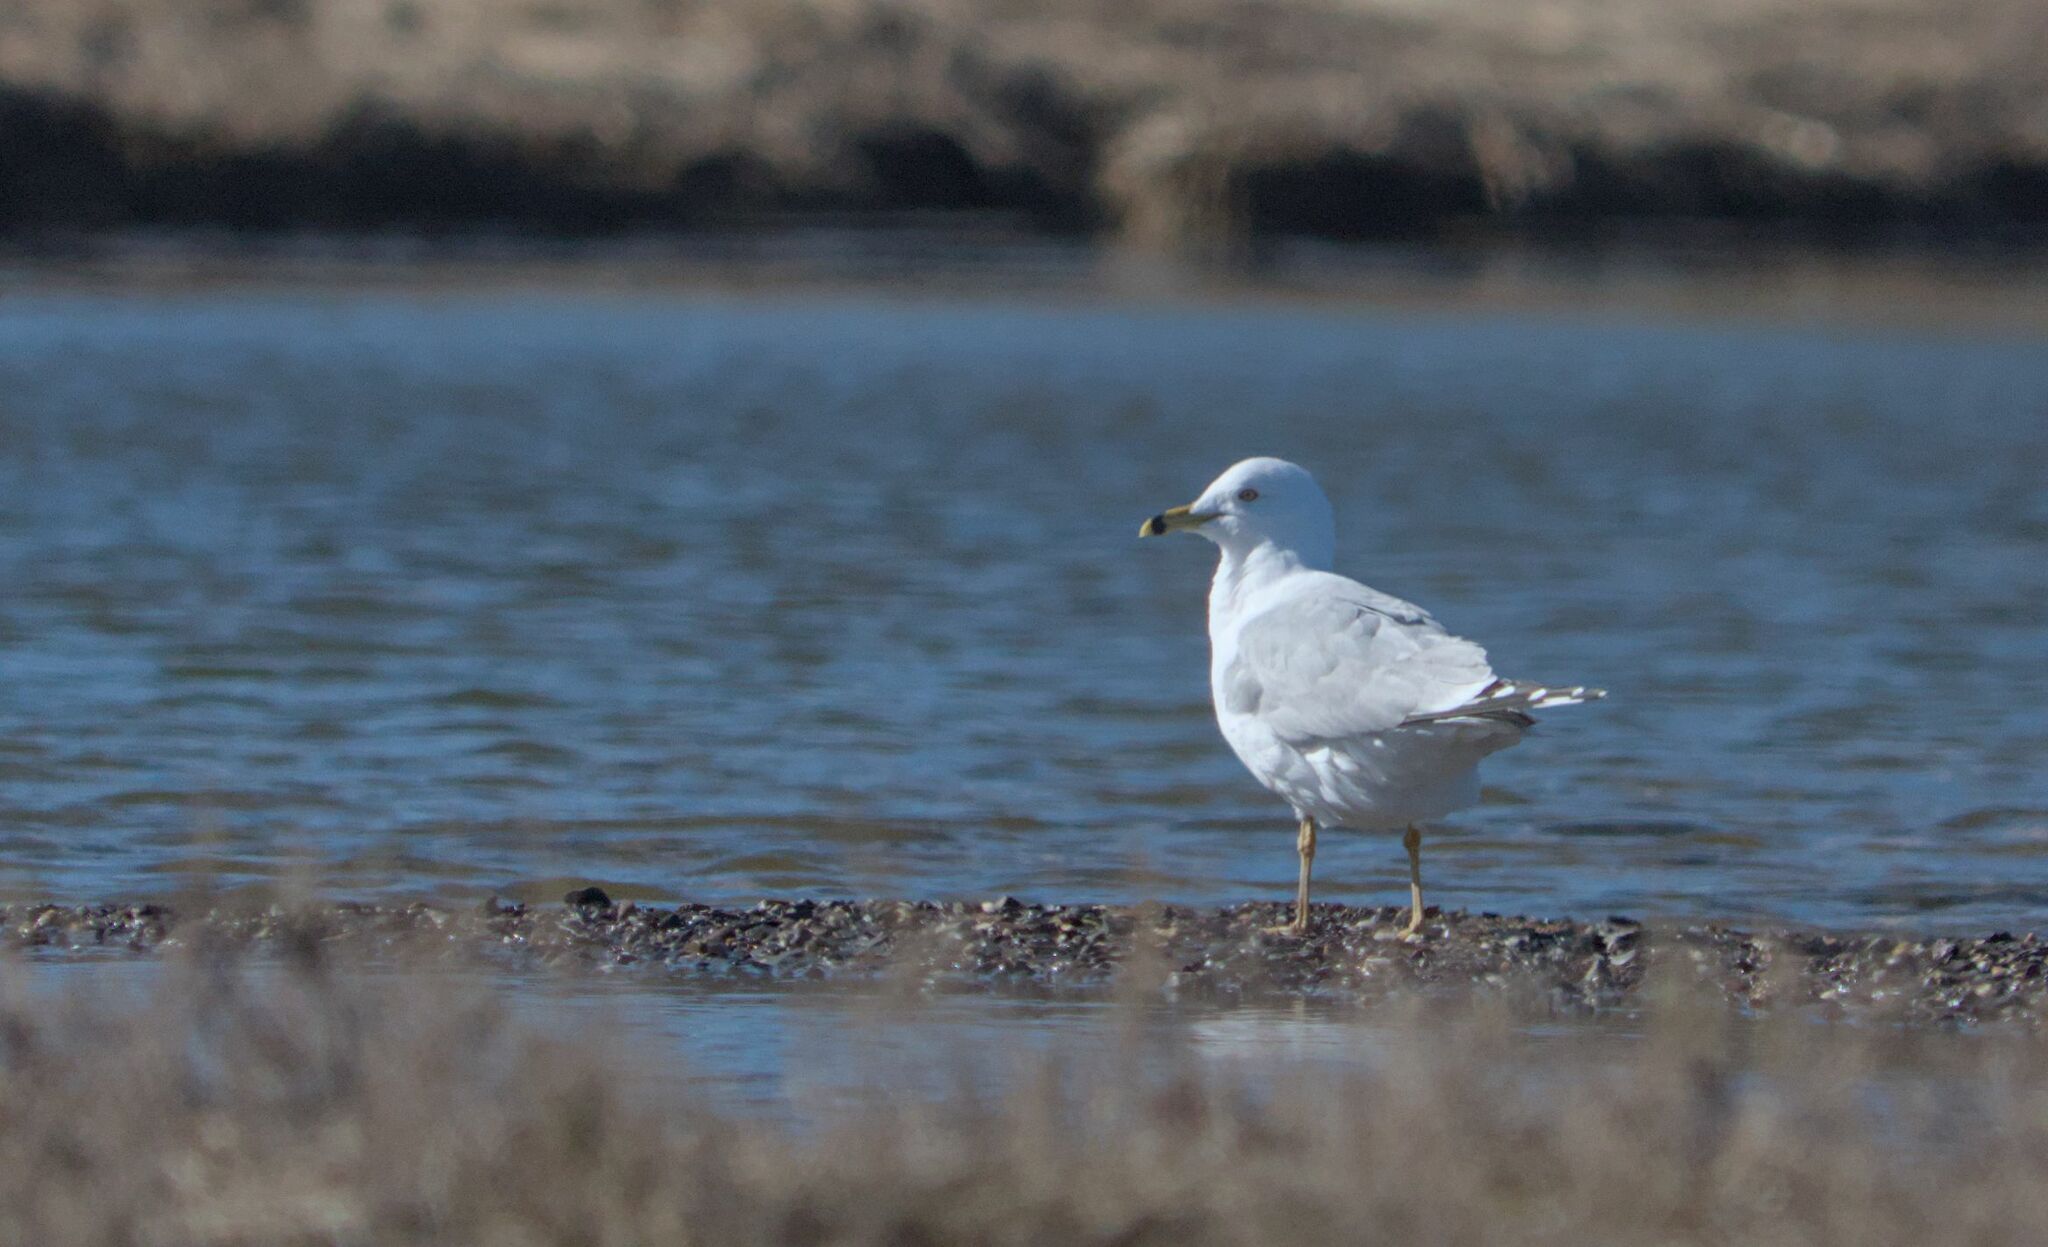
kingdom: Animalia
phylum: Chordata
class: Aves
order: Charadriiformes
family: Laridae
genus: Larus
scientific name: Larus delawarensis
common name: Ring-billed gull
